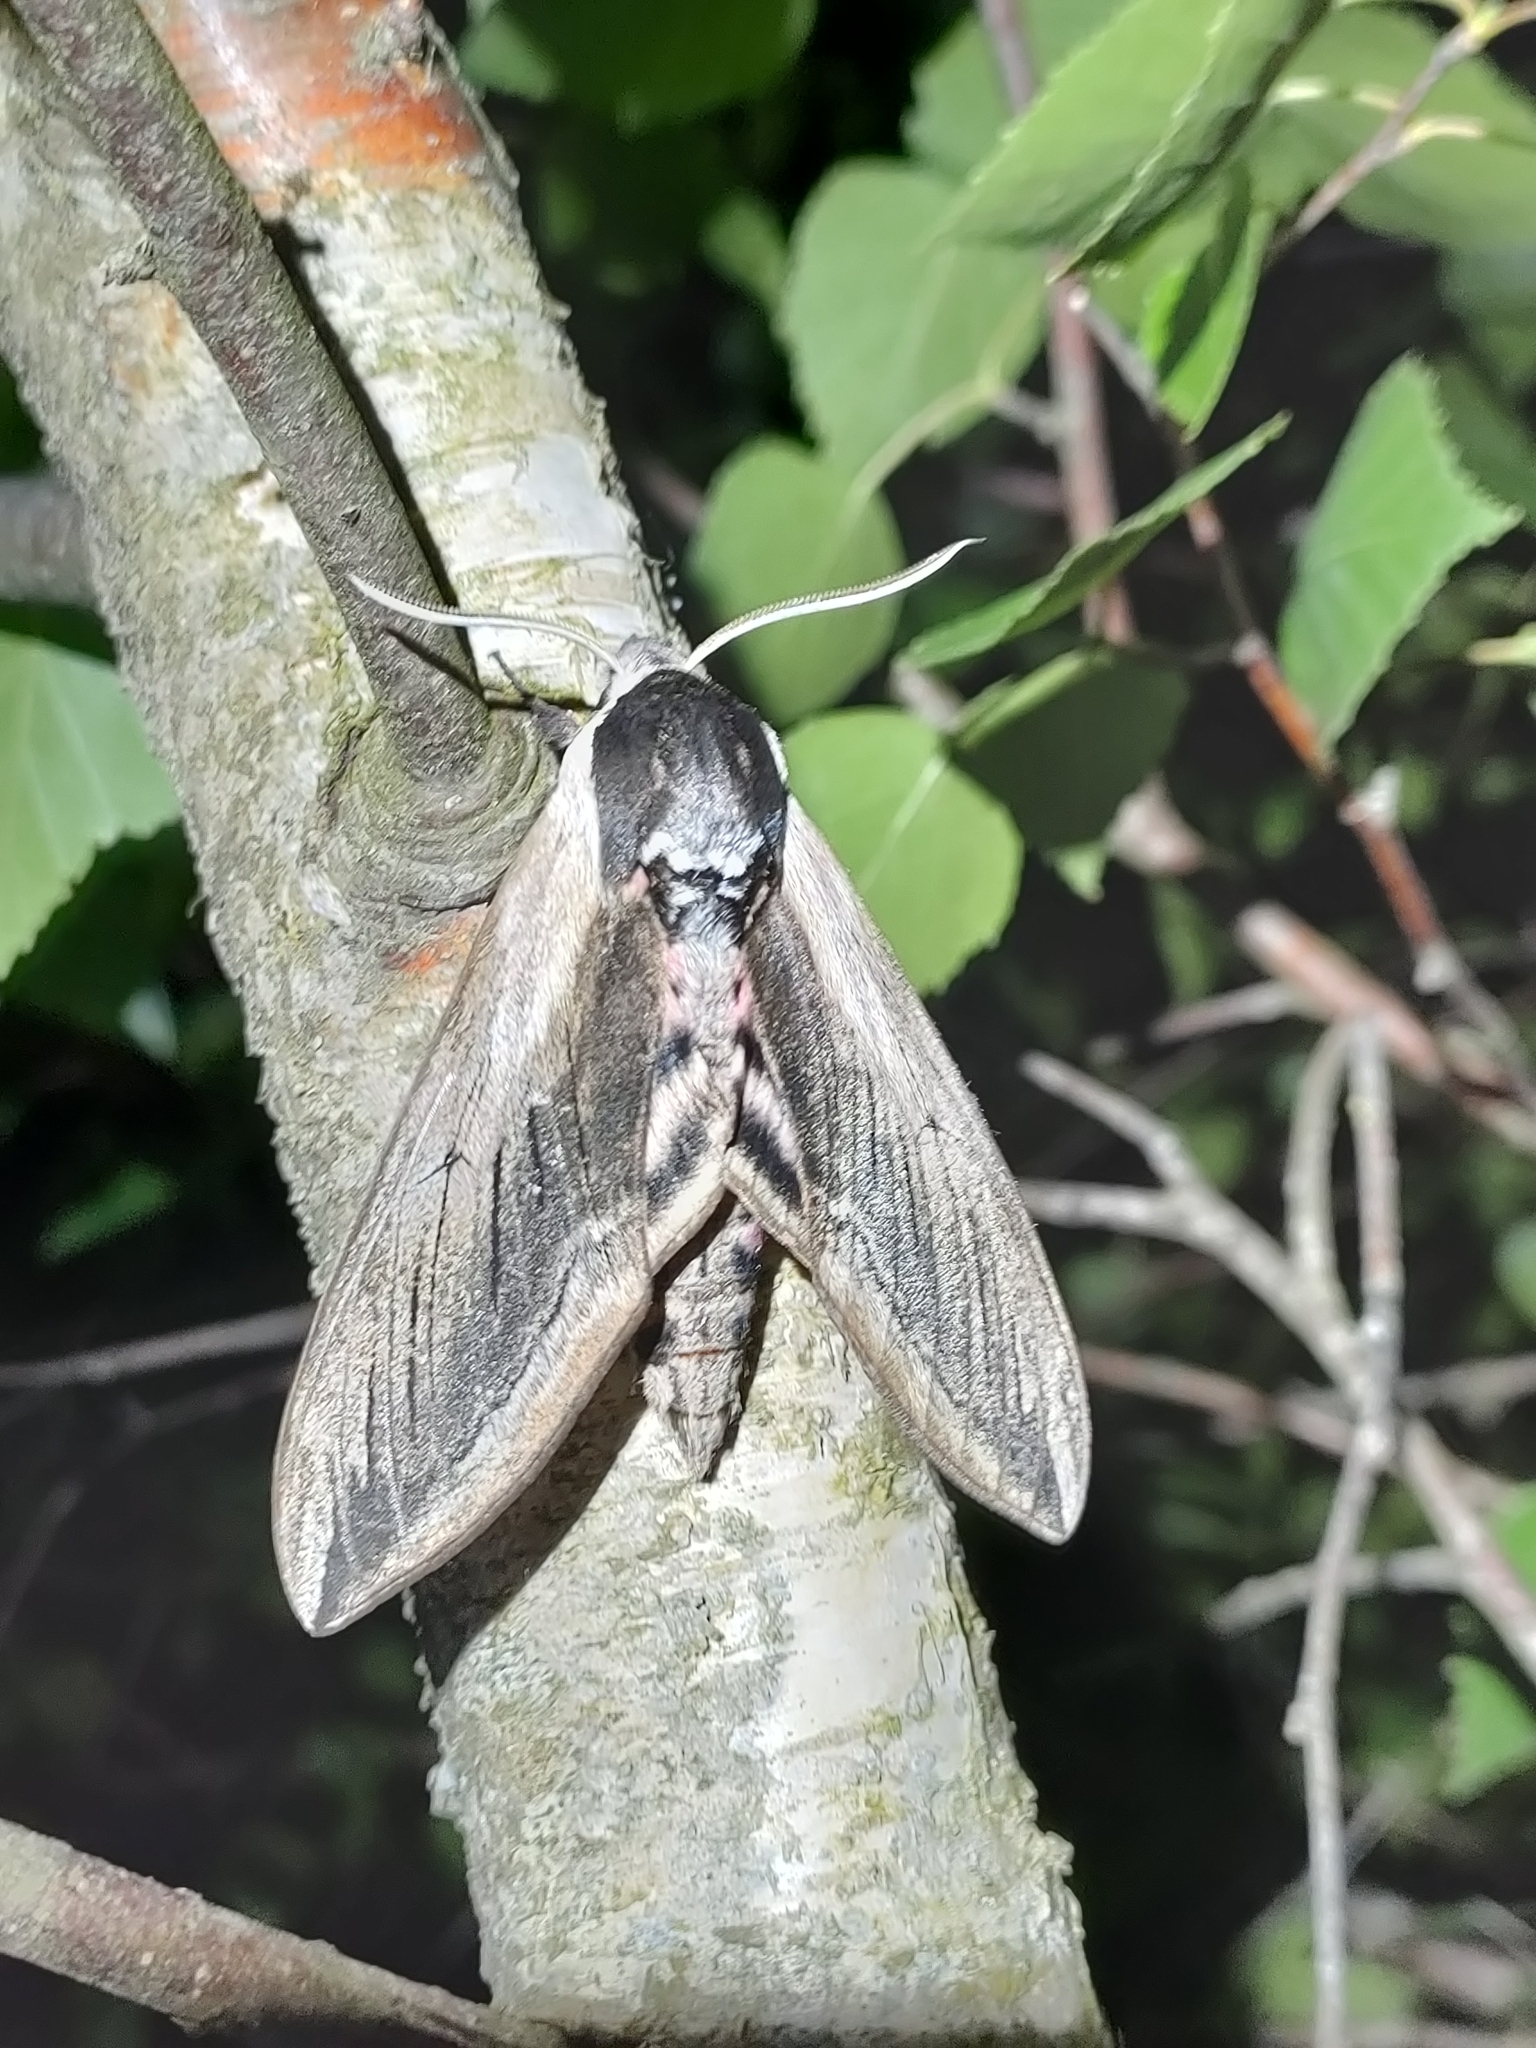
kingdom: Animalia
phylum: Arthropoda
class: Insecta
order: Lepidoptera
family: Sphingidae
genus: Sphinx
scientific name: Sphinx ligustri
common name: Privet hawk-moth
